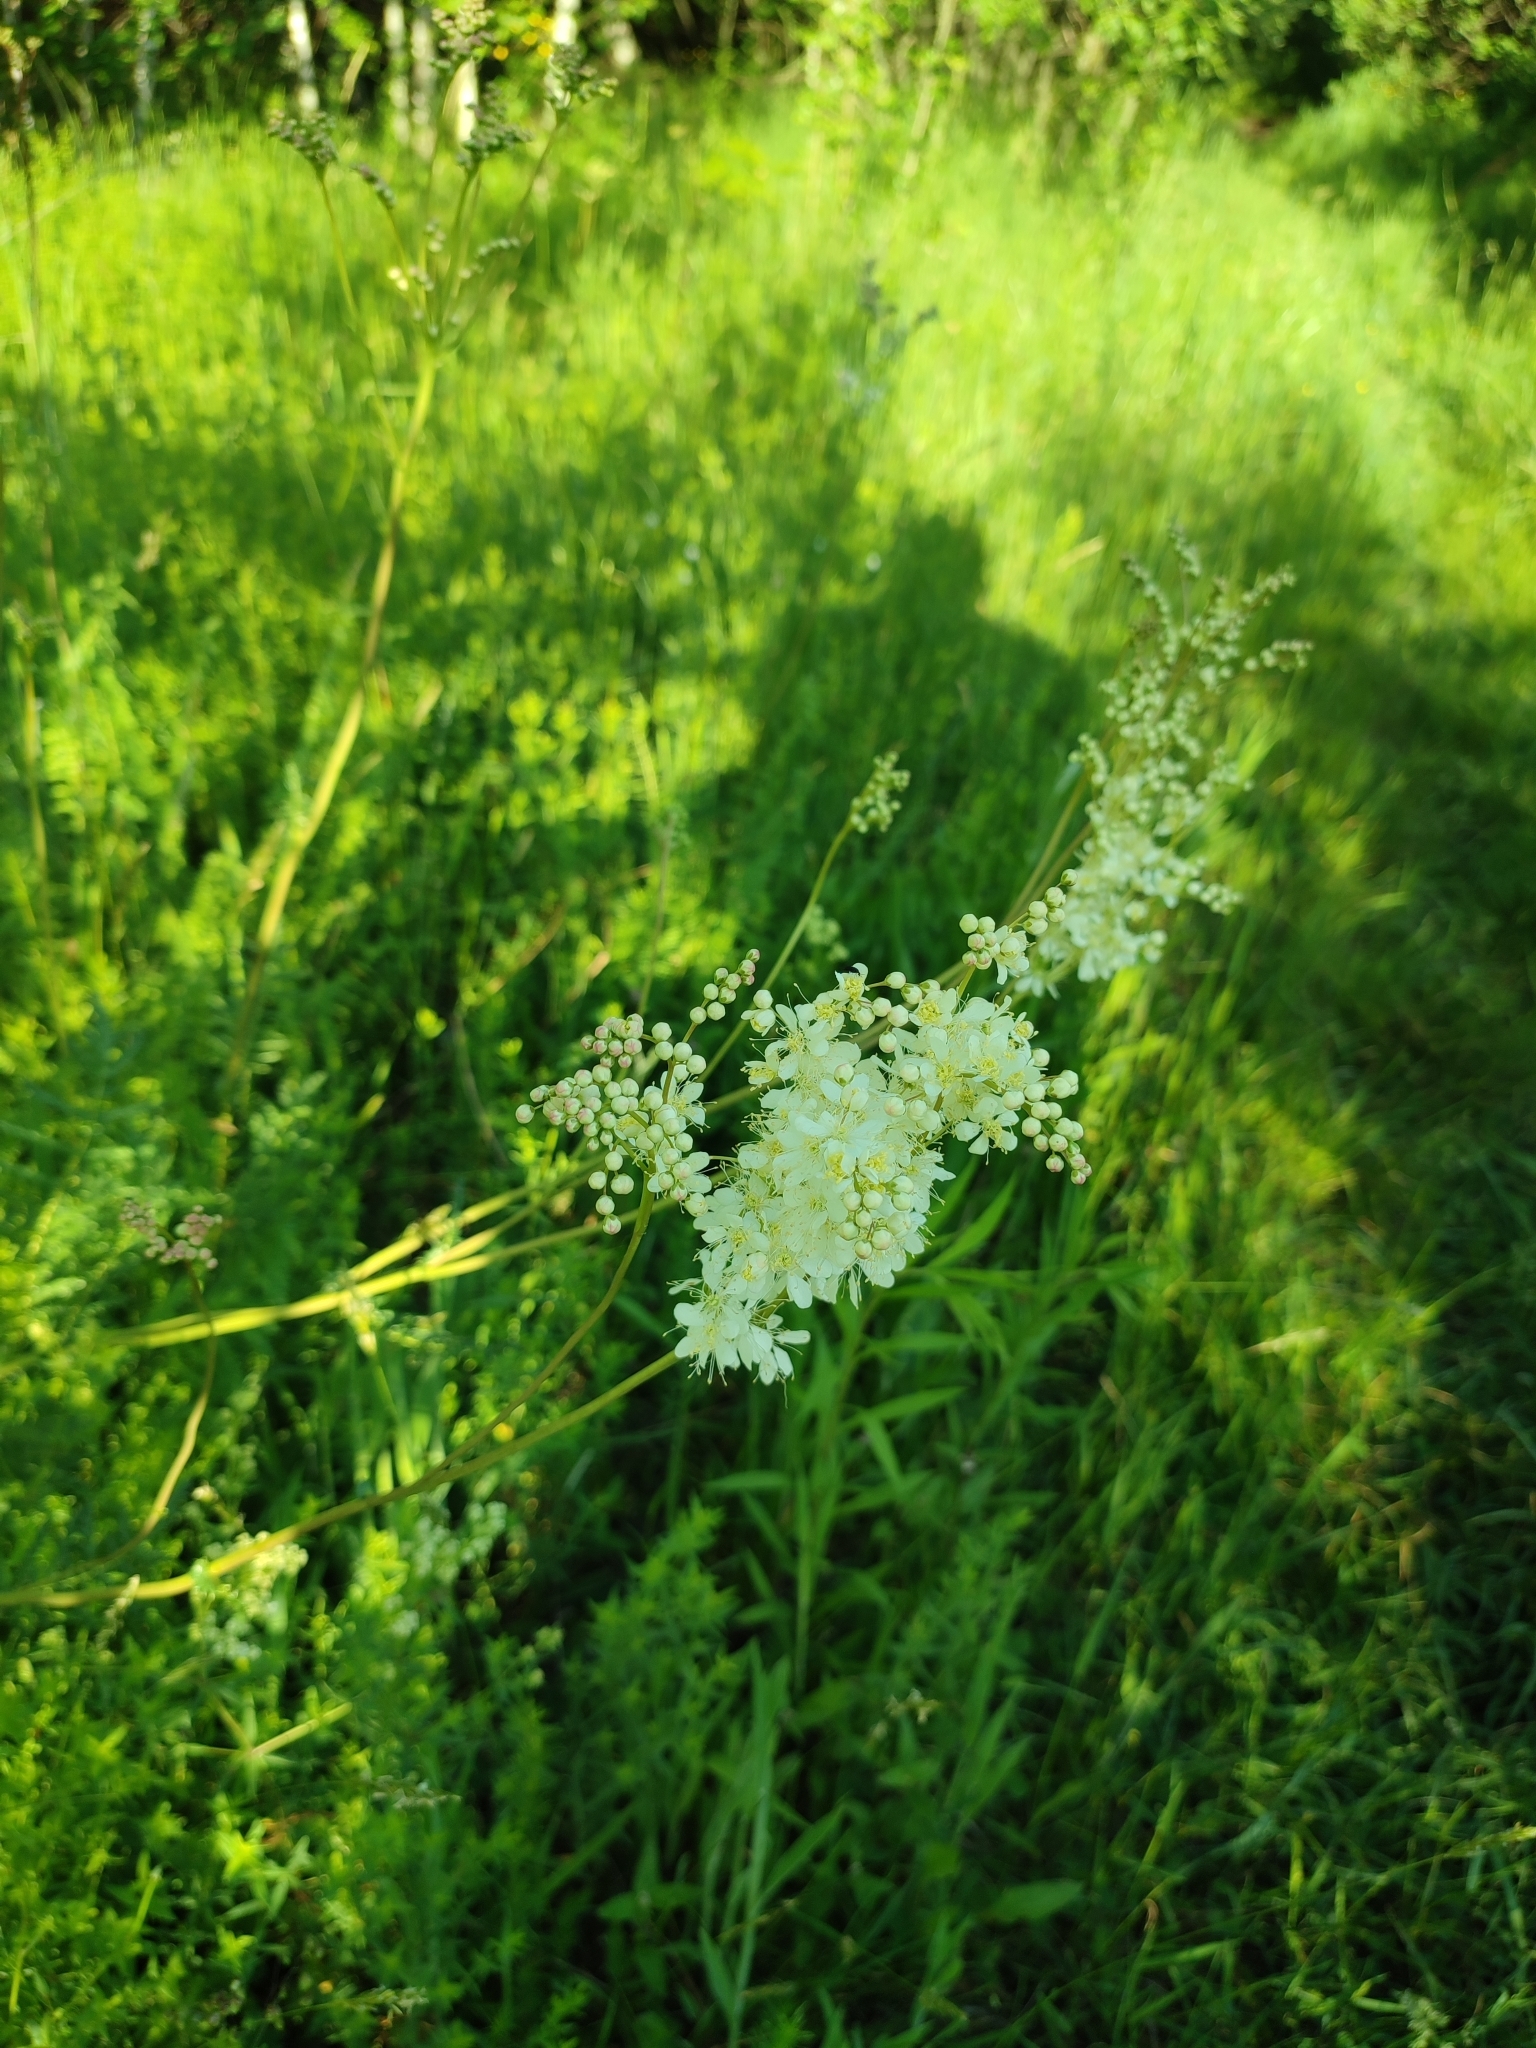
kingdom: Plantae
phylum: Tracheophyta
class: Magnoliopsida
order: Rosales
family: Rosaceae
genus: Filipendula
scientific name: Filipendula vulgaris
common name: Dropwort
